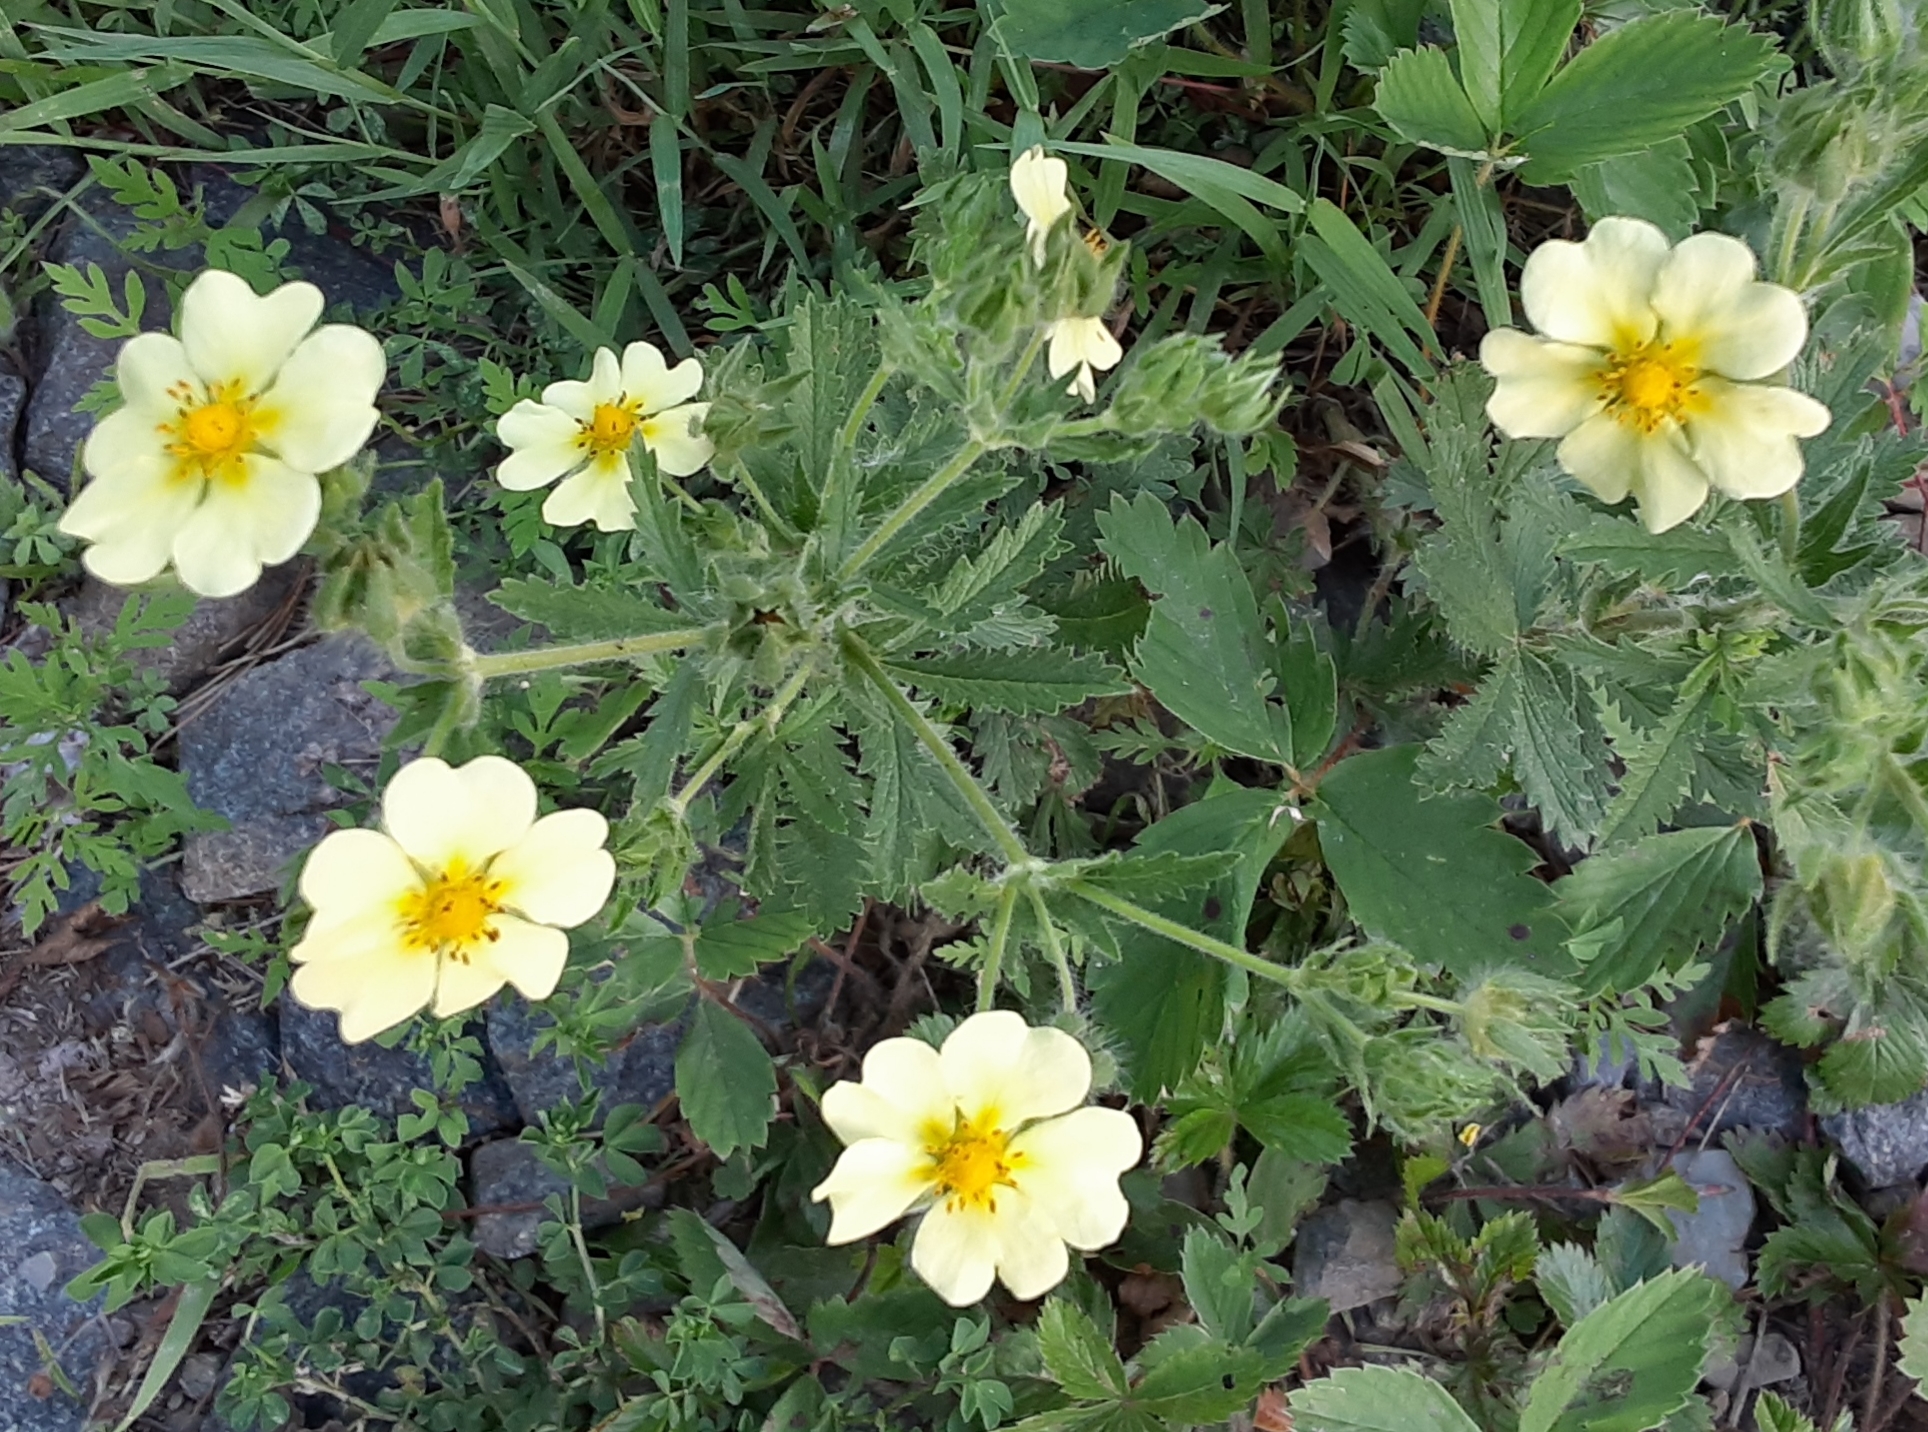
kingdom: Plantae
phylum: Tracheophyta
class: Magnoliopsida
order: Rosales
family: Rosaceae
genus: Potentilla
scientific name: Potentilla recta
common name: Sulphur cinquefoil
